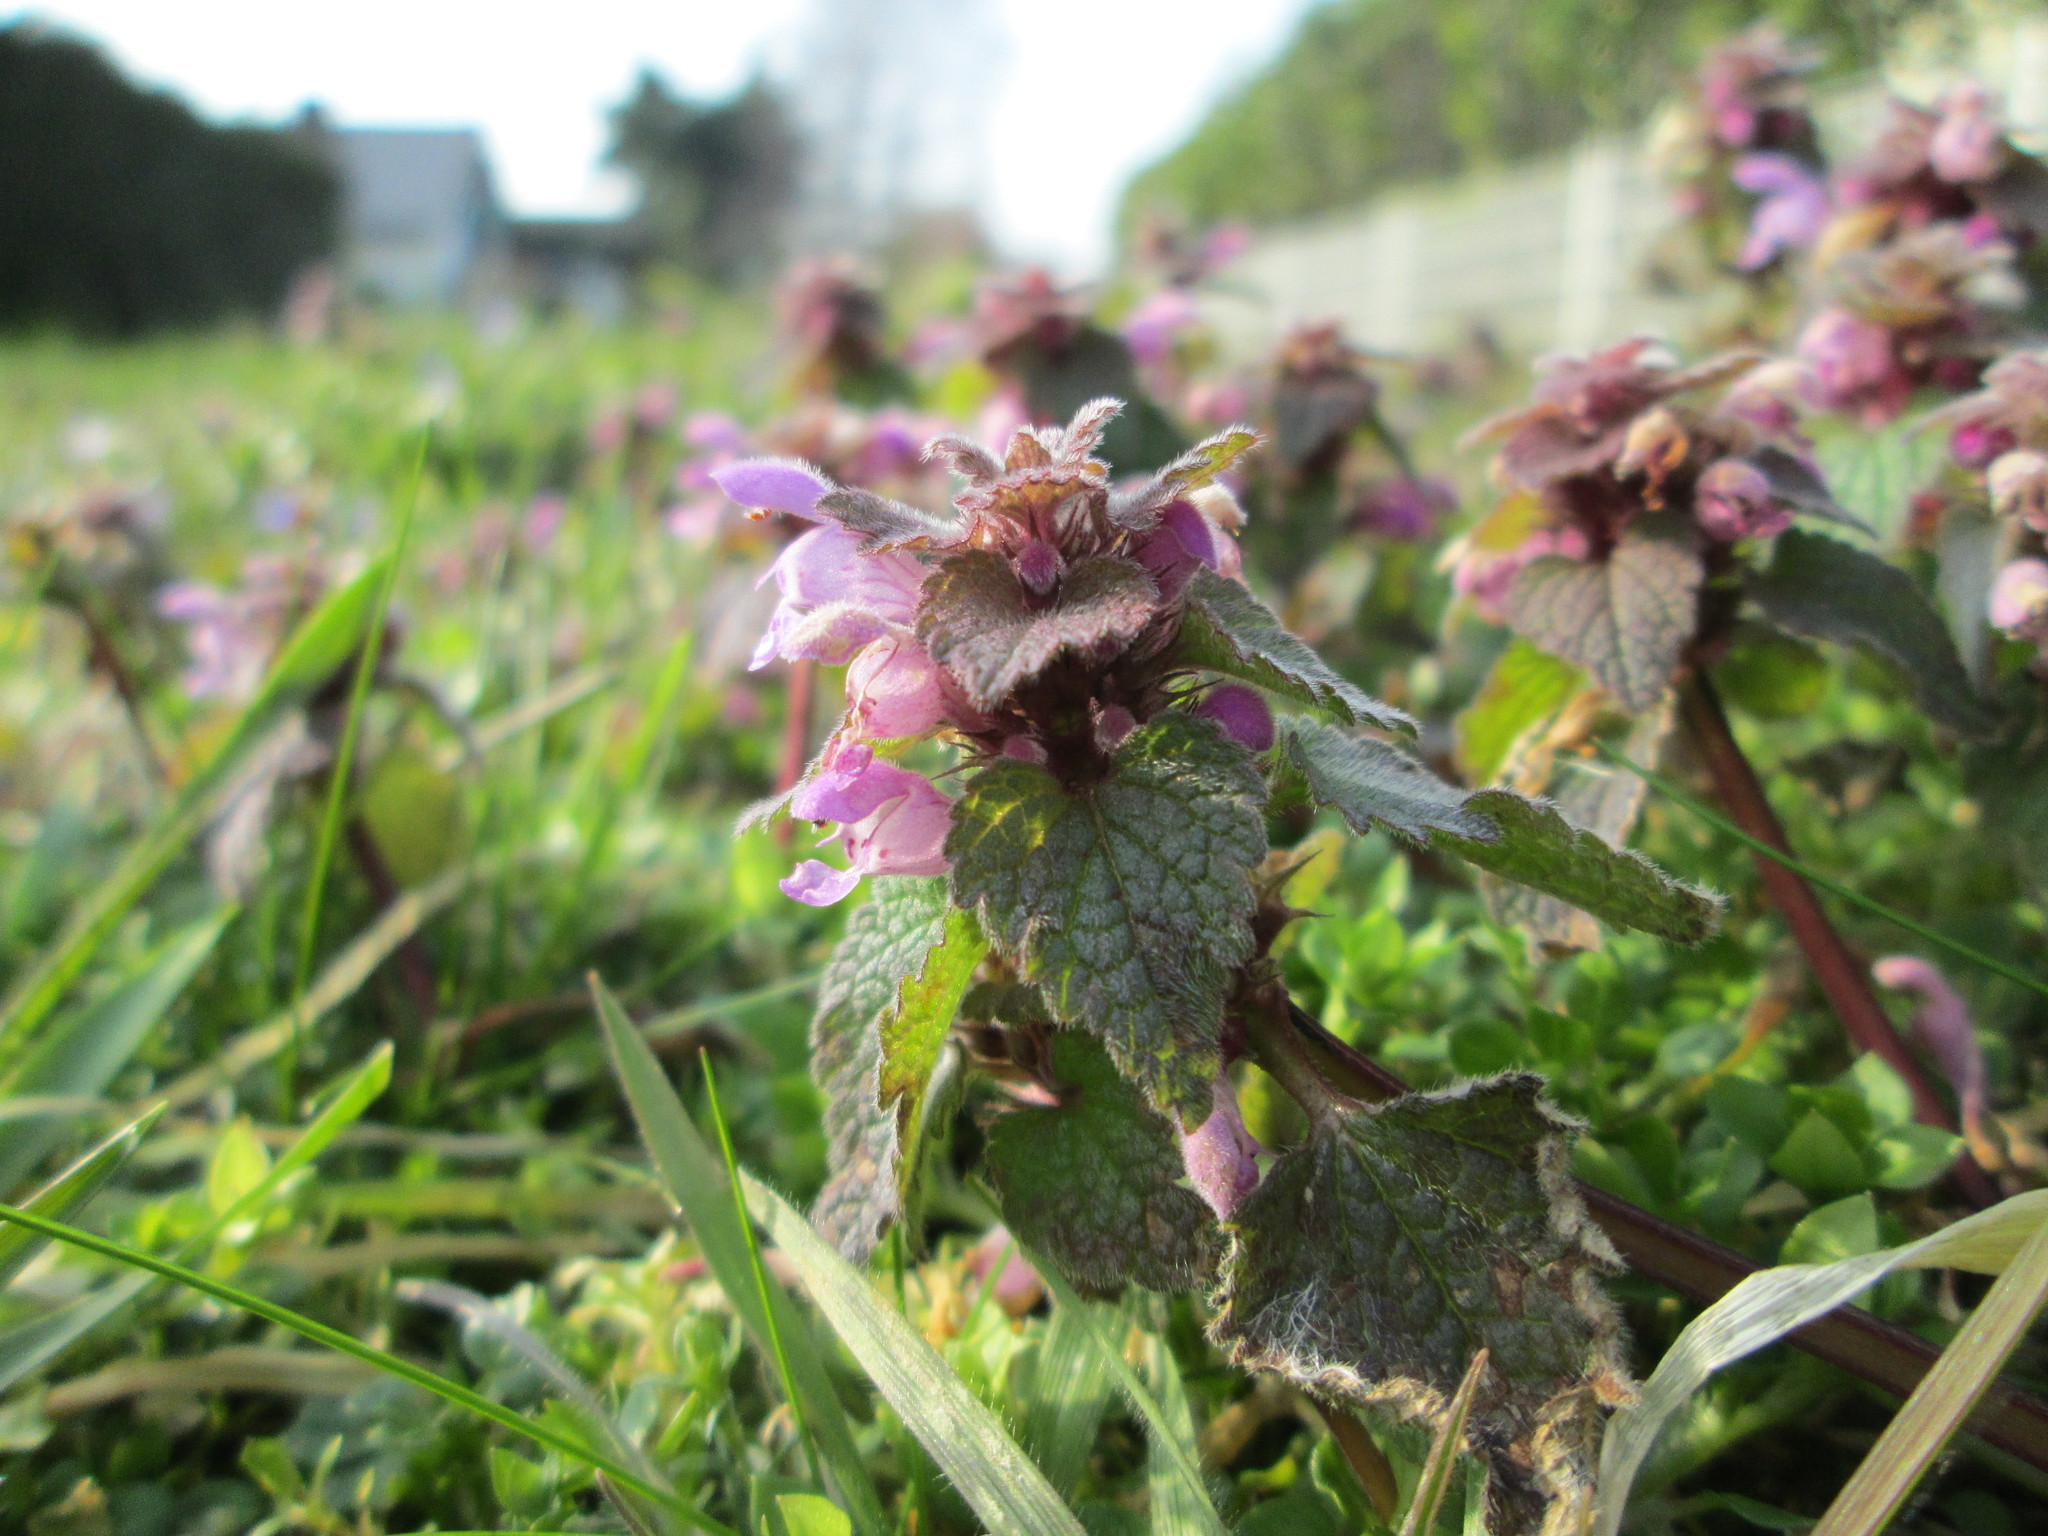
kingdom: Plantae
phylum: Tracheophyta
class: Magnoliopsida
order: Lamiales
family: Lamiaceae
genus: Lamium
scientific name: Lamium purpureum
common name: Red dead-nettle
